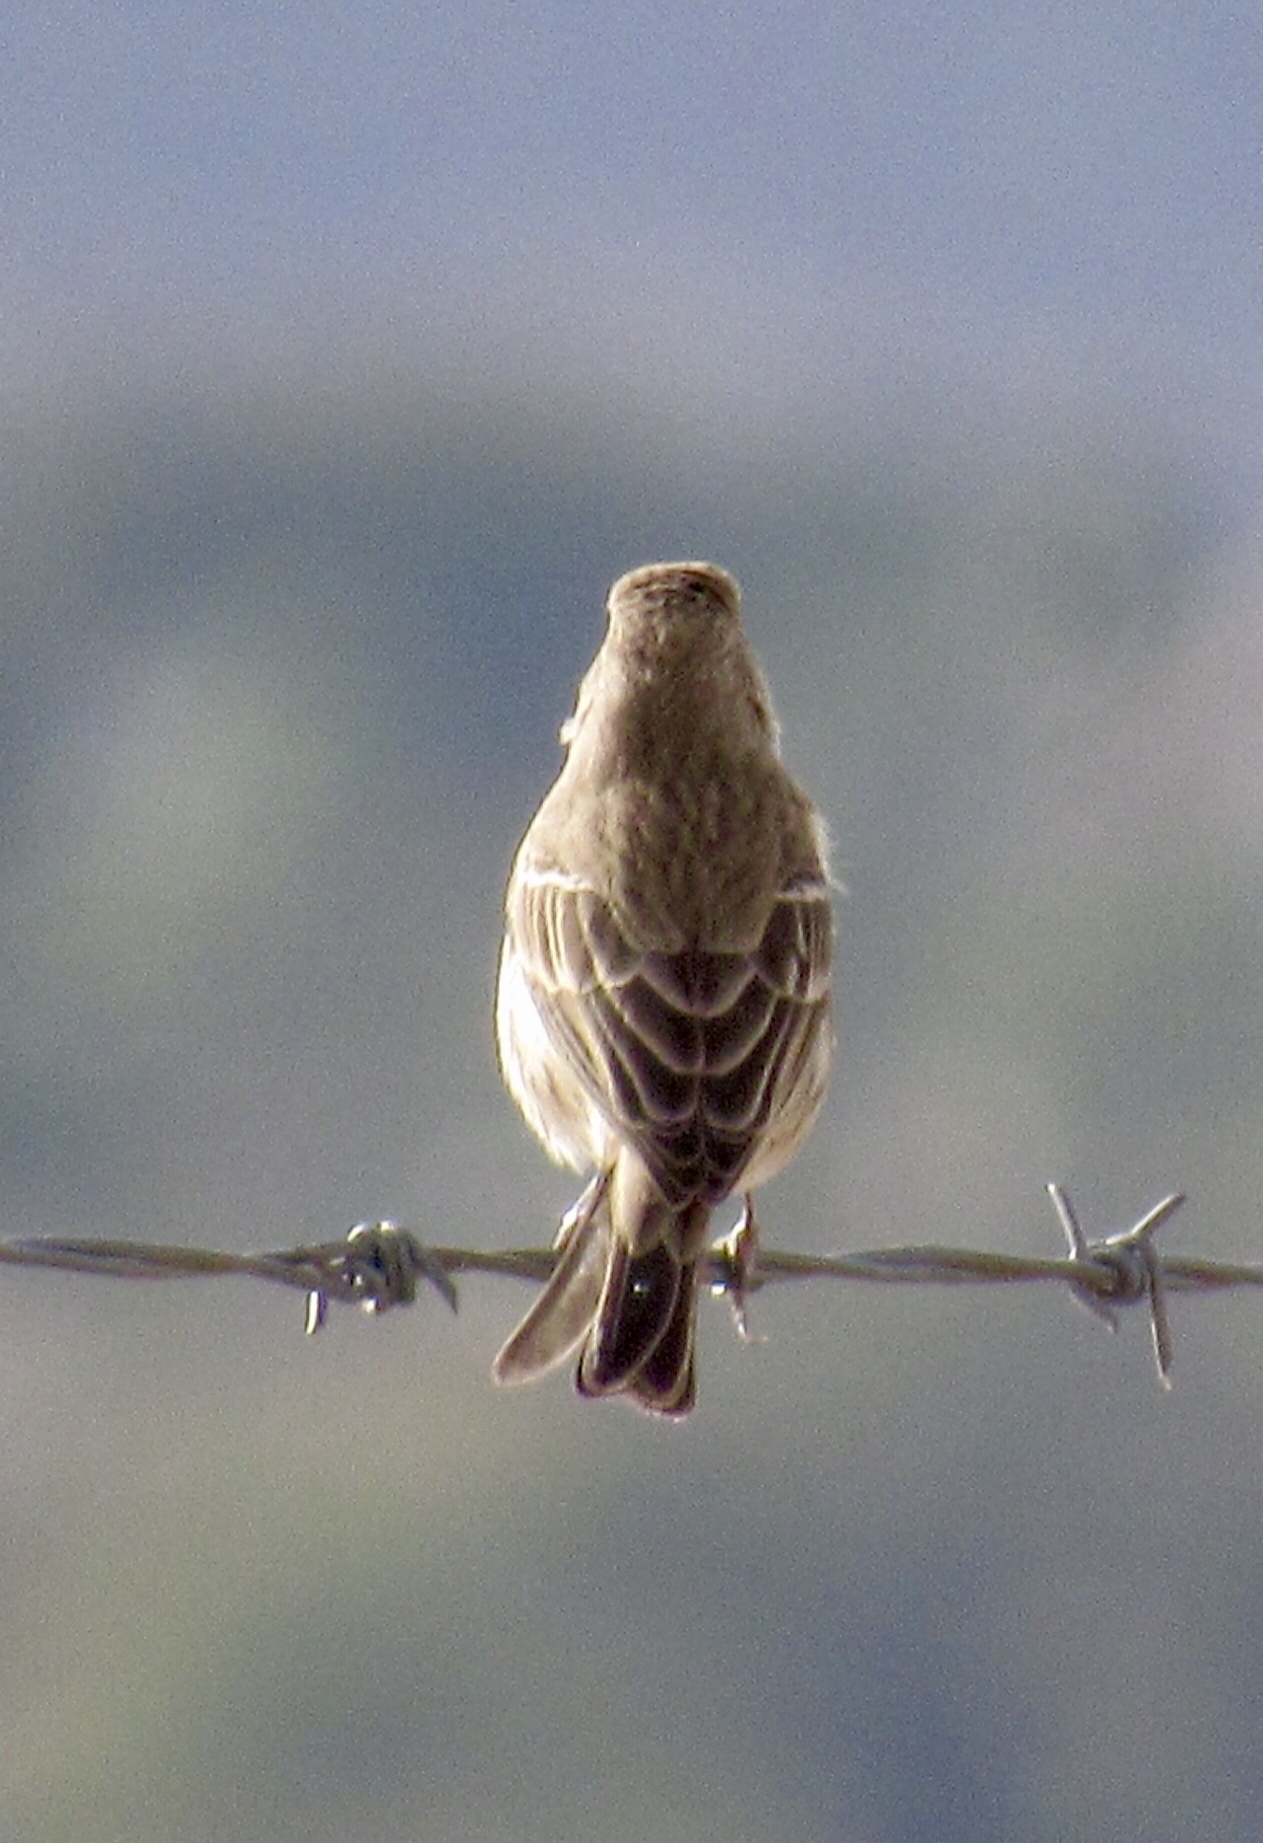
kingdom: Animalia
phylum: Chordata
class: Aves
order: Passeriformes
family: Fringillidae
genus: Haemorhous
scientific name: Haemorhous mexicanus
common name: House finch
